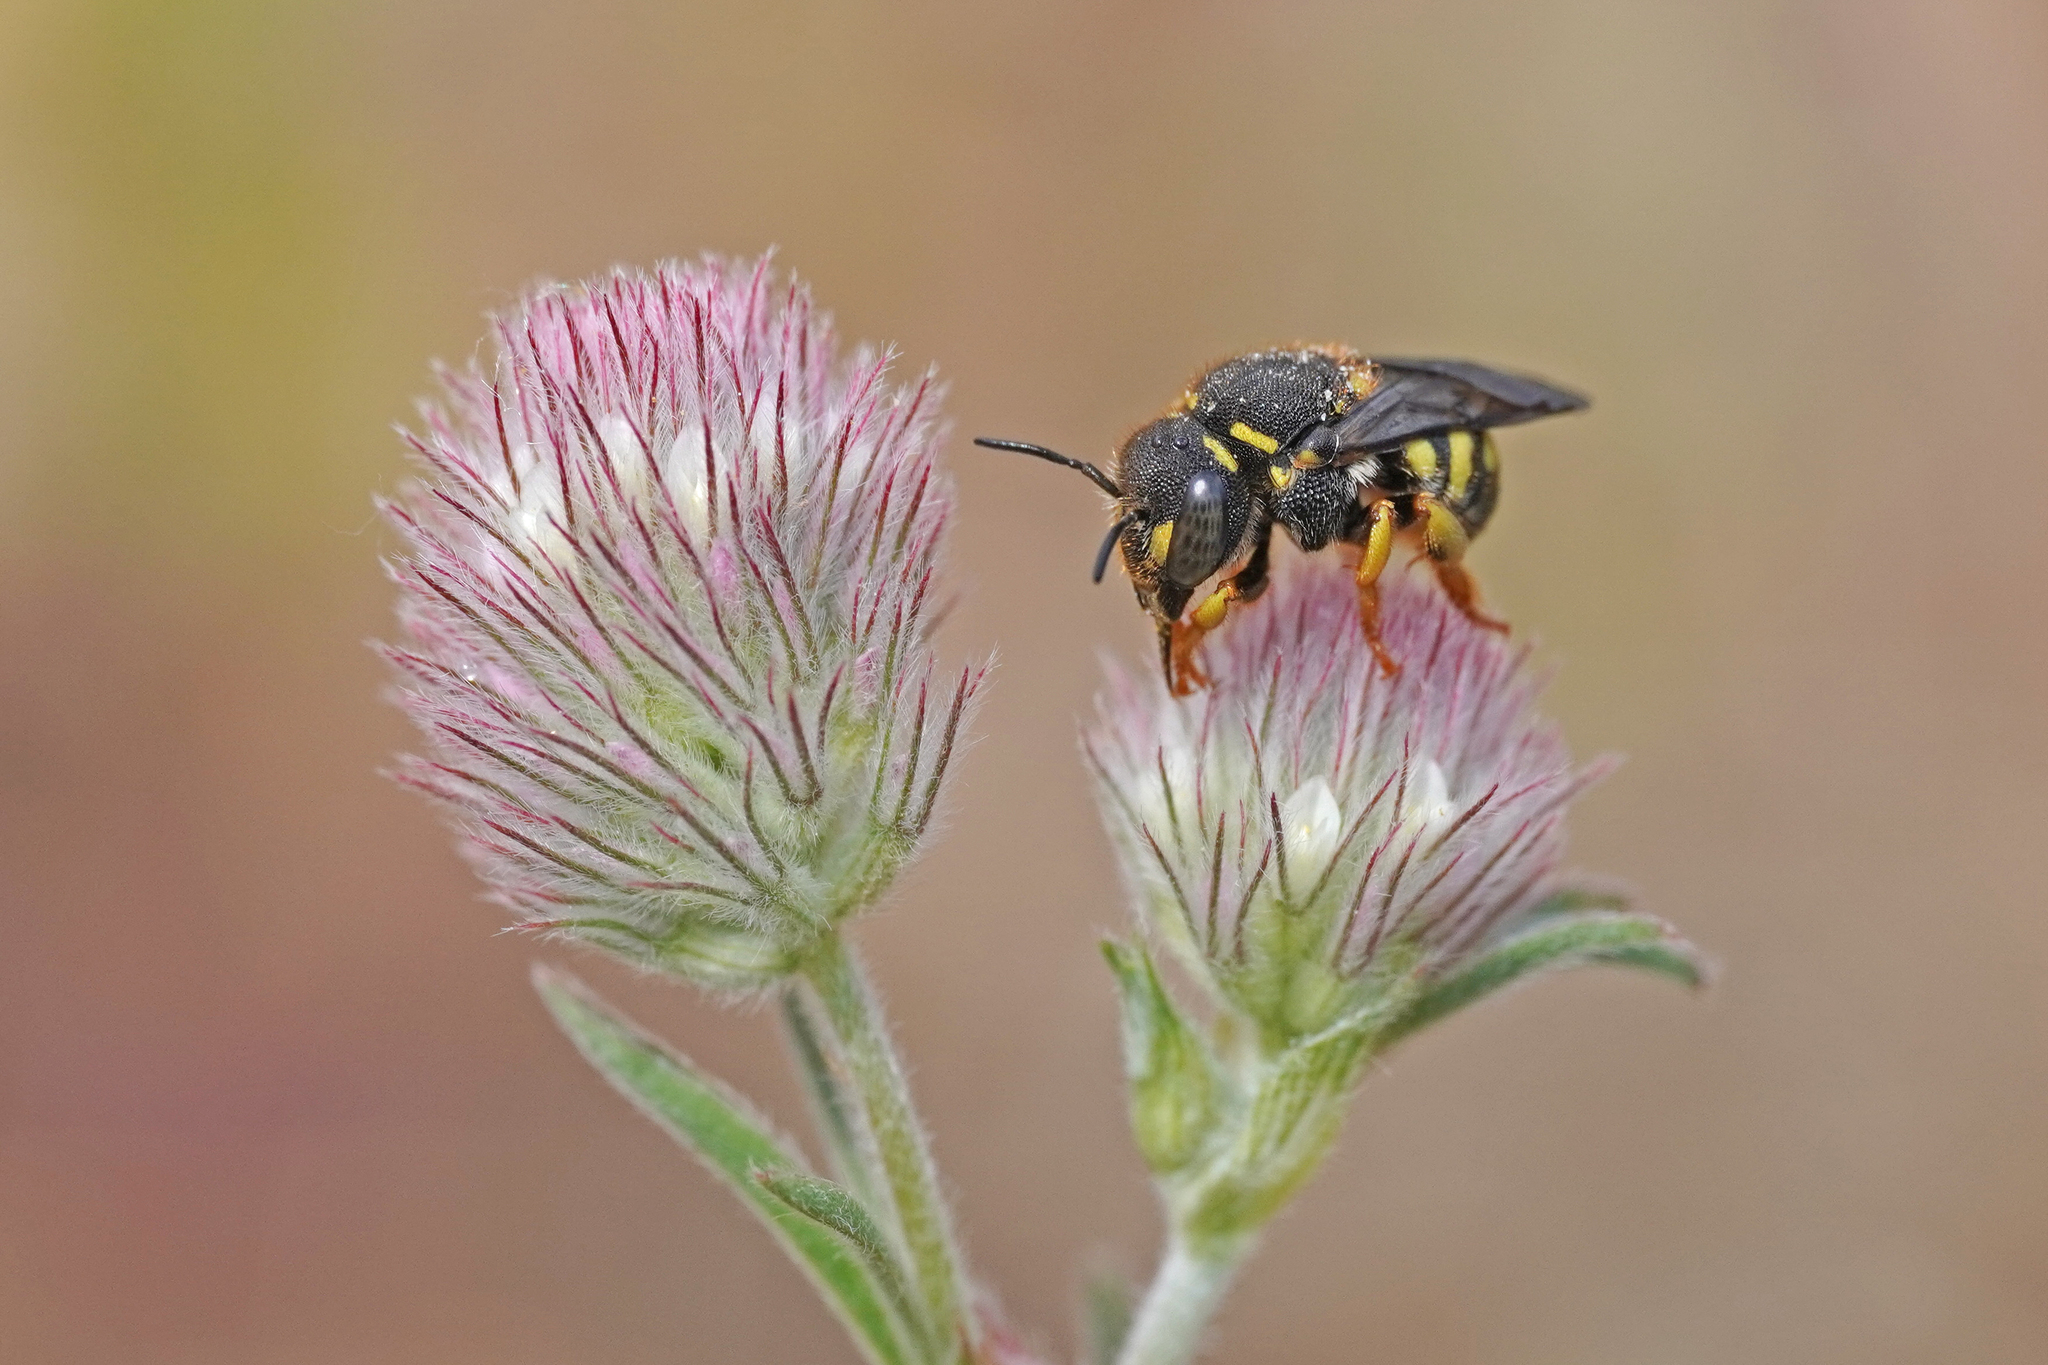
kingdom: Animalia
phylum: Arthropoda
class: Insecta
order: Hymenoptera
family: Megachilidae
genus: Anthidiellum
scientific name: Anthidiellum strigatum
